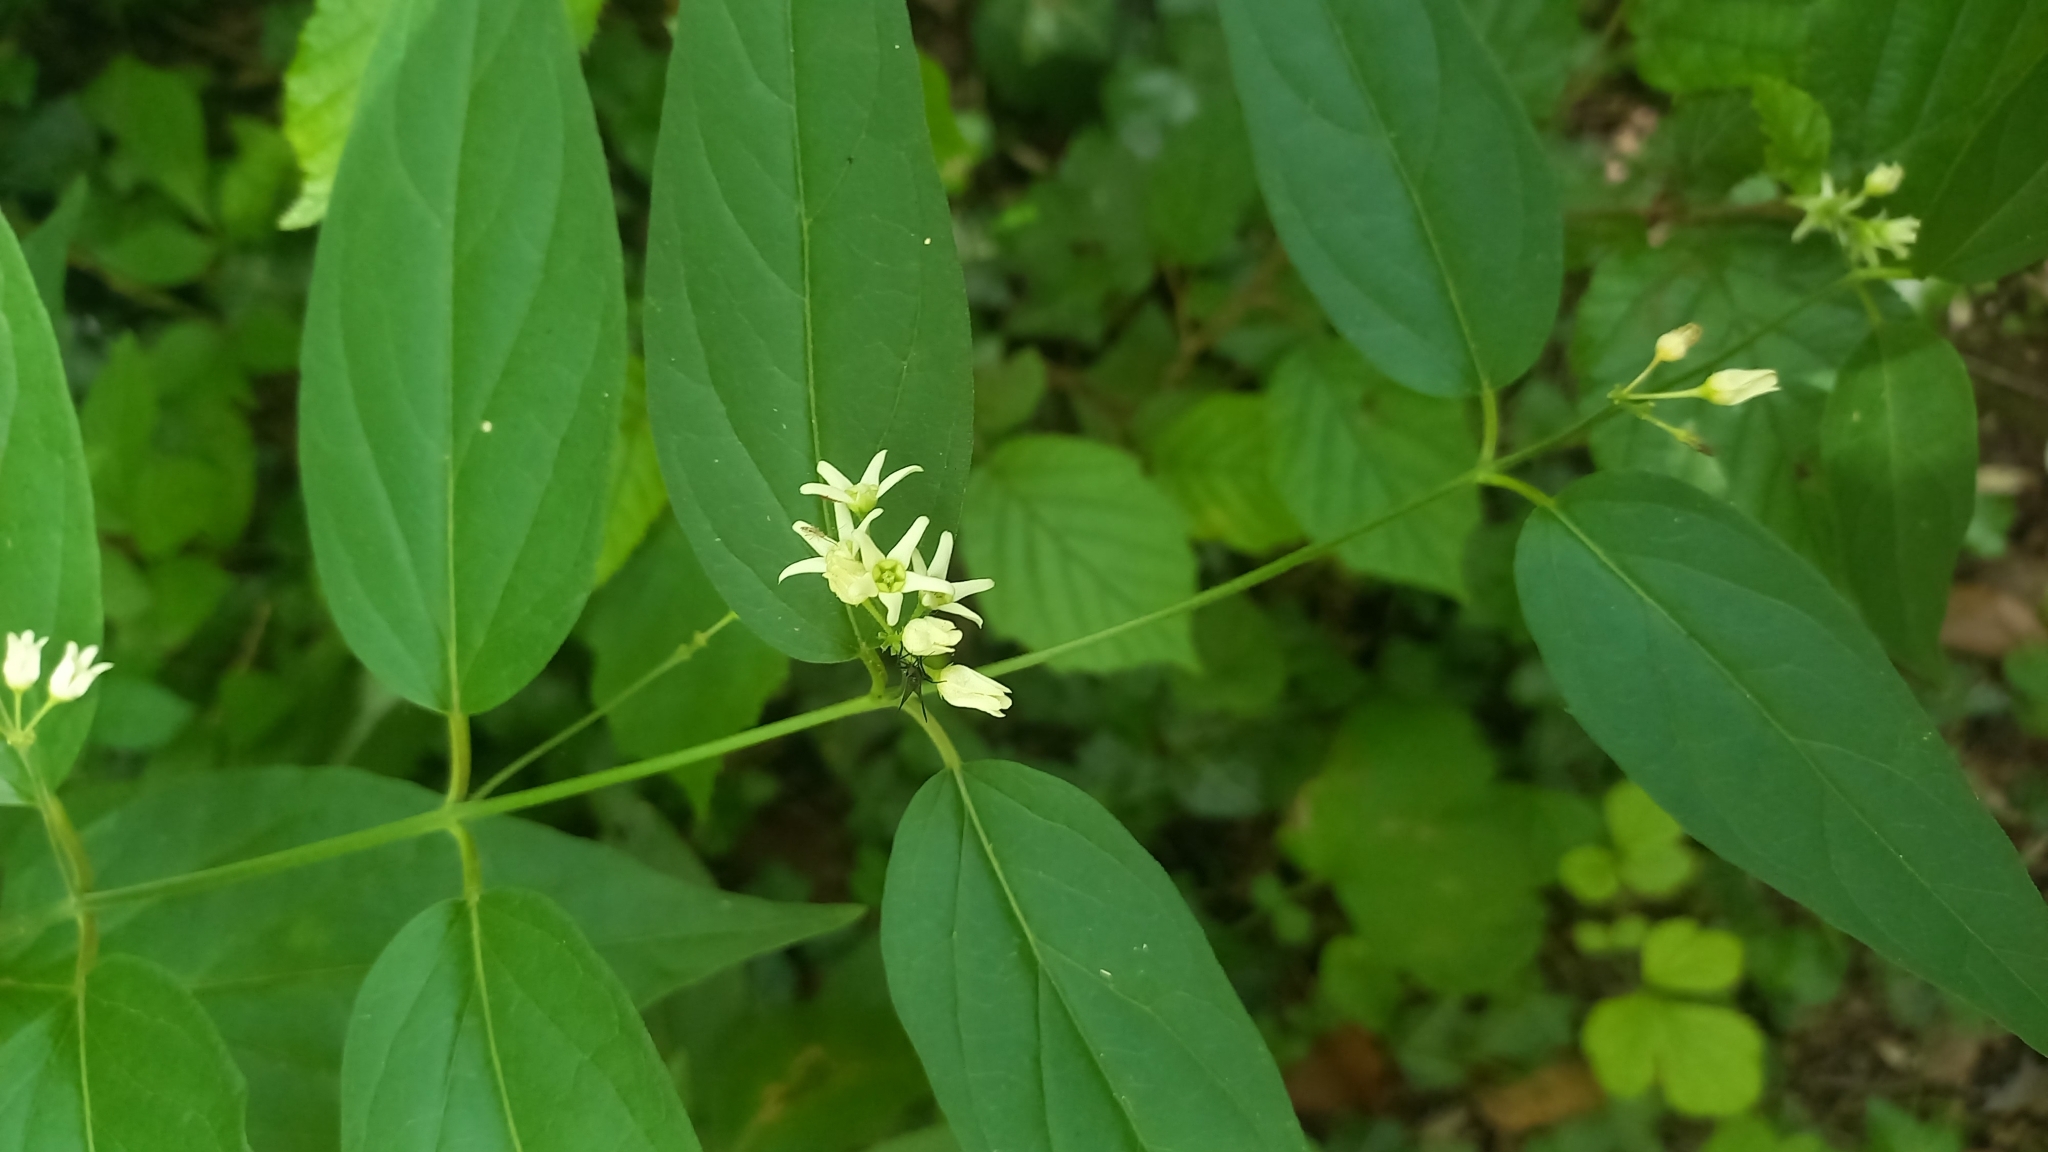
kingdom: Plantae
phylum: Tracheophyta
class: Magnoliopsida
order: Gentianales
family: Apocynaceae
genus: Vincetoxicum
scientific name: Vincetoxicum hirundinaria
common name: White swallowwort
